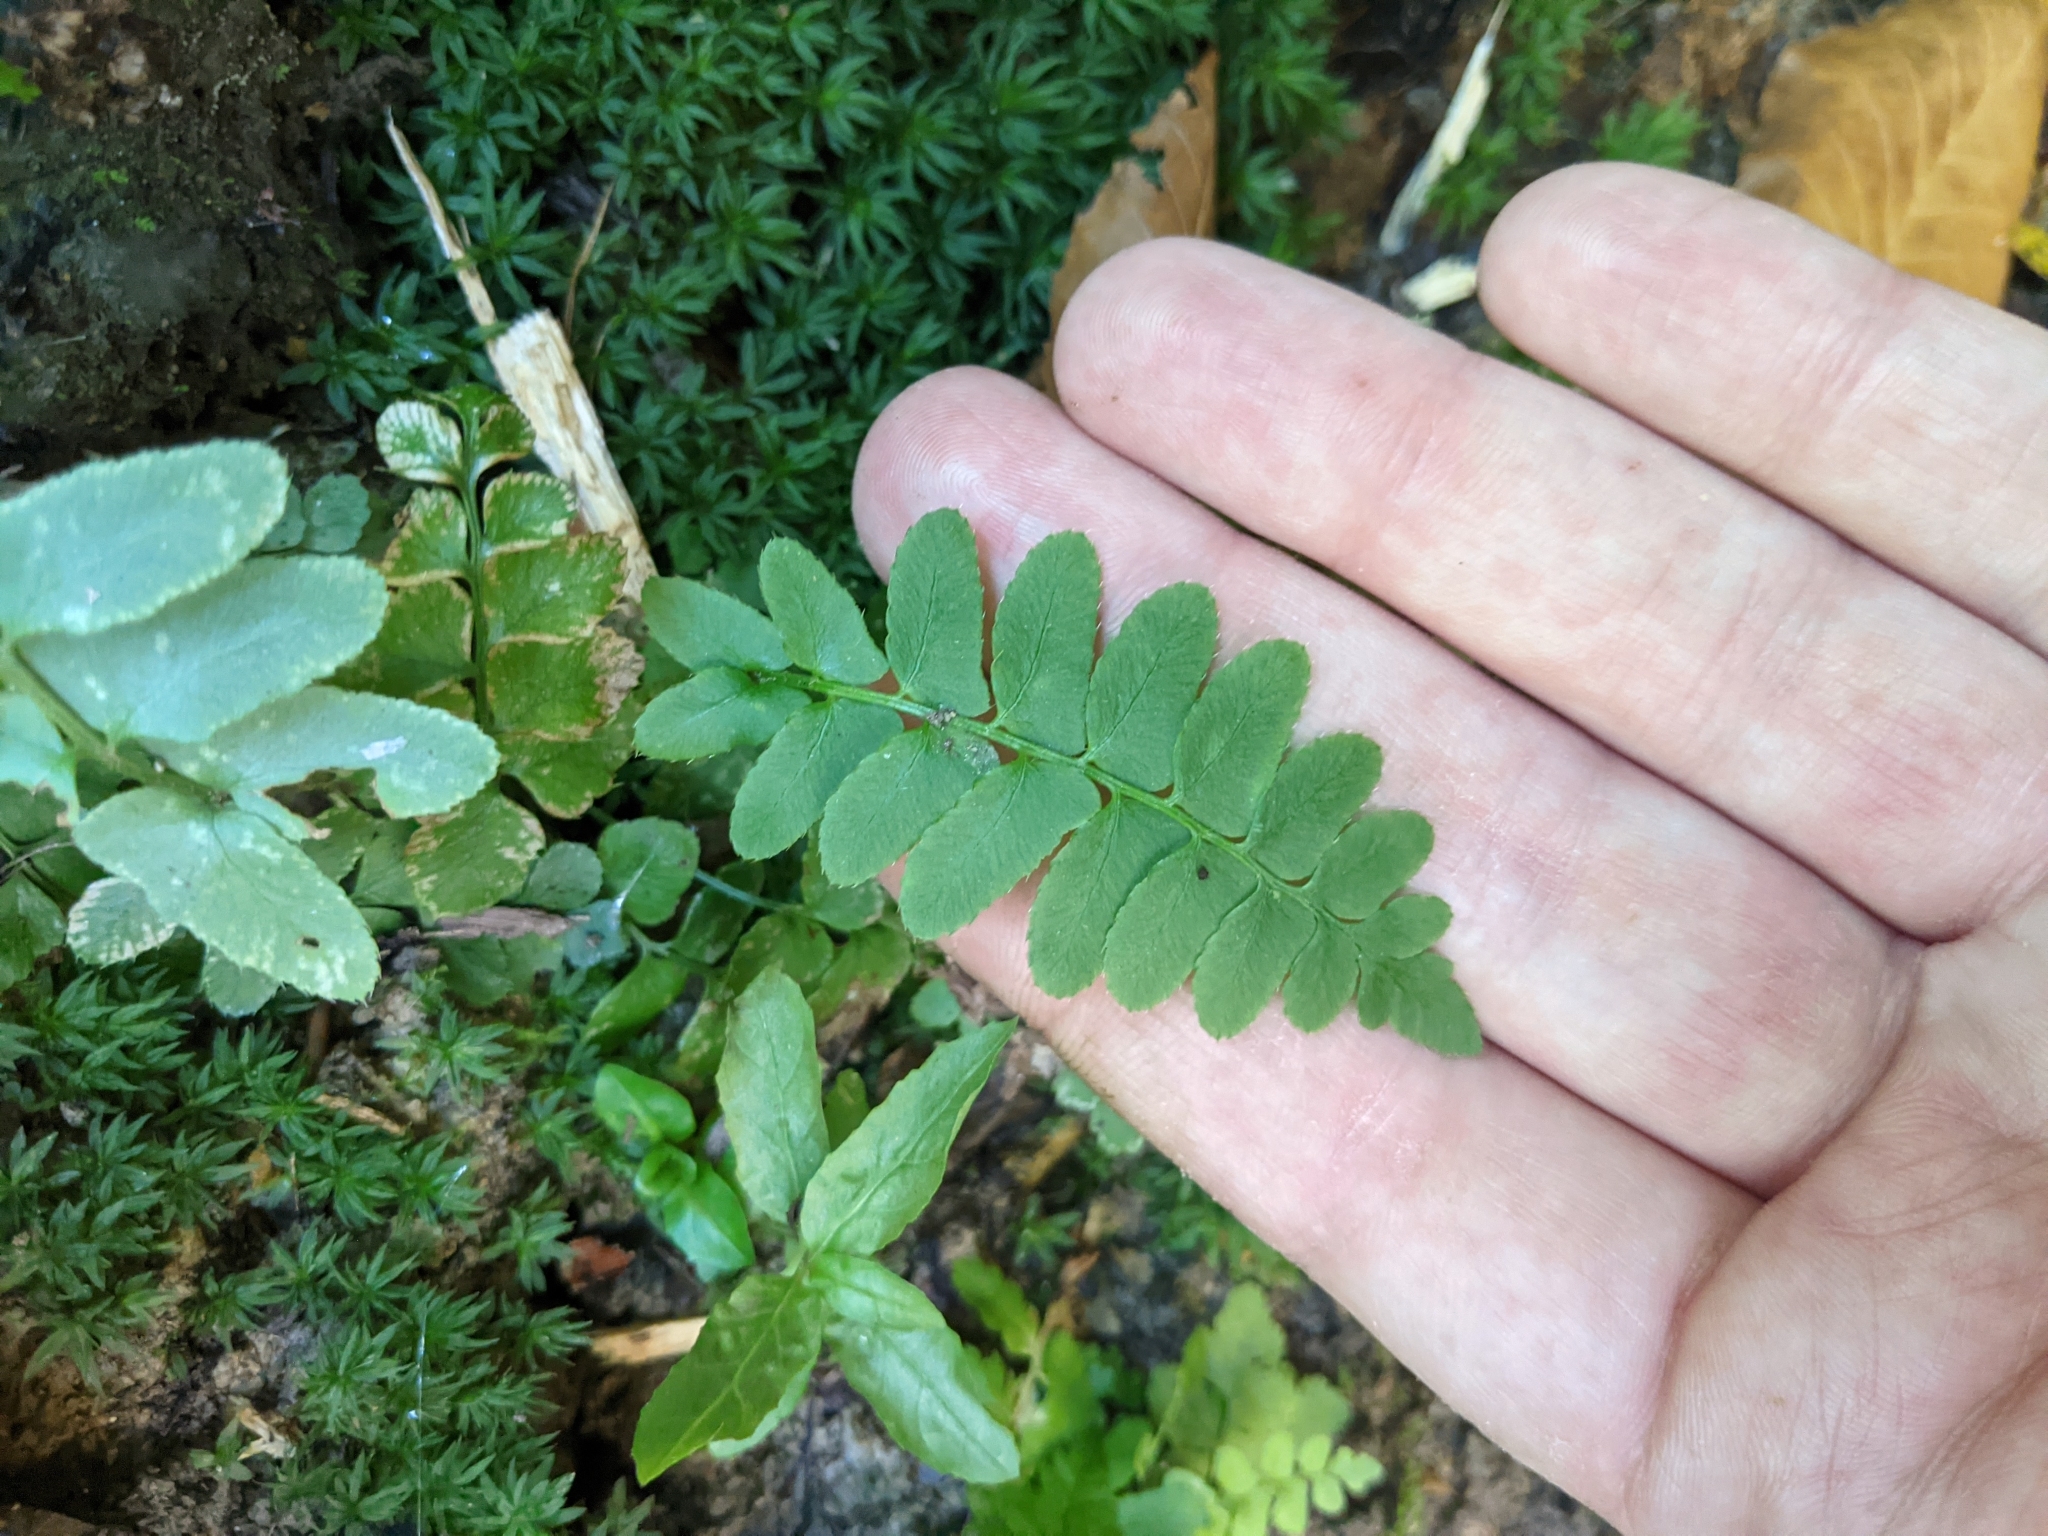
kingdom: Plantae
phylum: Tracheophyta
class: Polypodiopsida
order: Polypodiales
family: Dryopteridaceae
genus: Polystichum
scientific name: Polystichum acrostichoides
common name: Christmas fern
